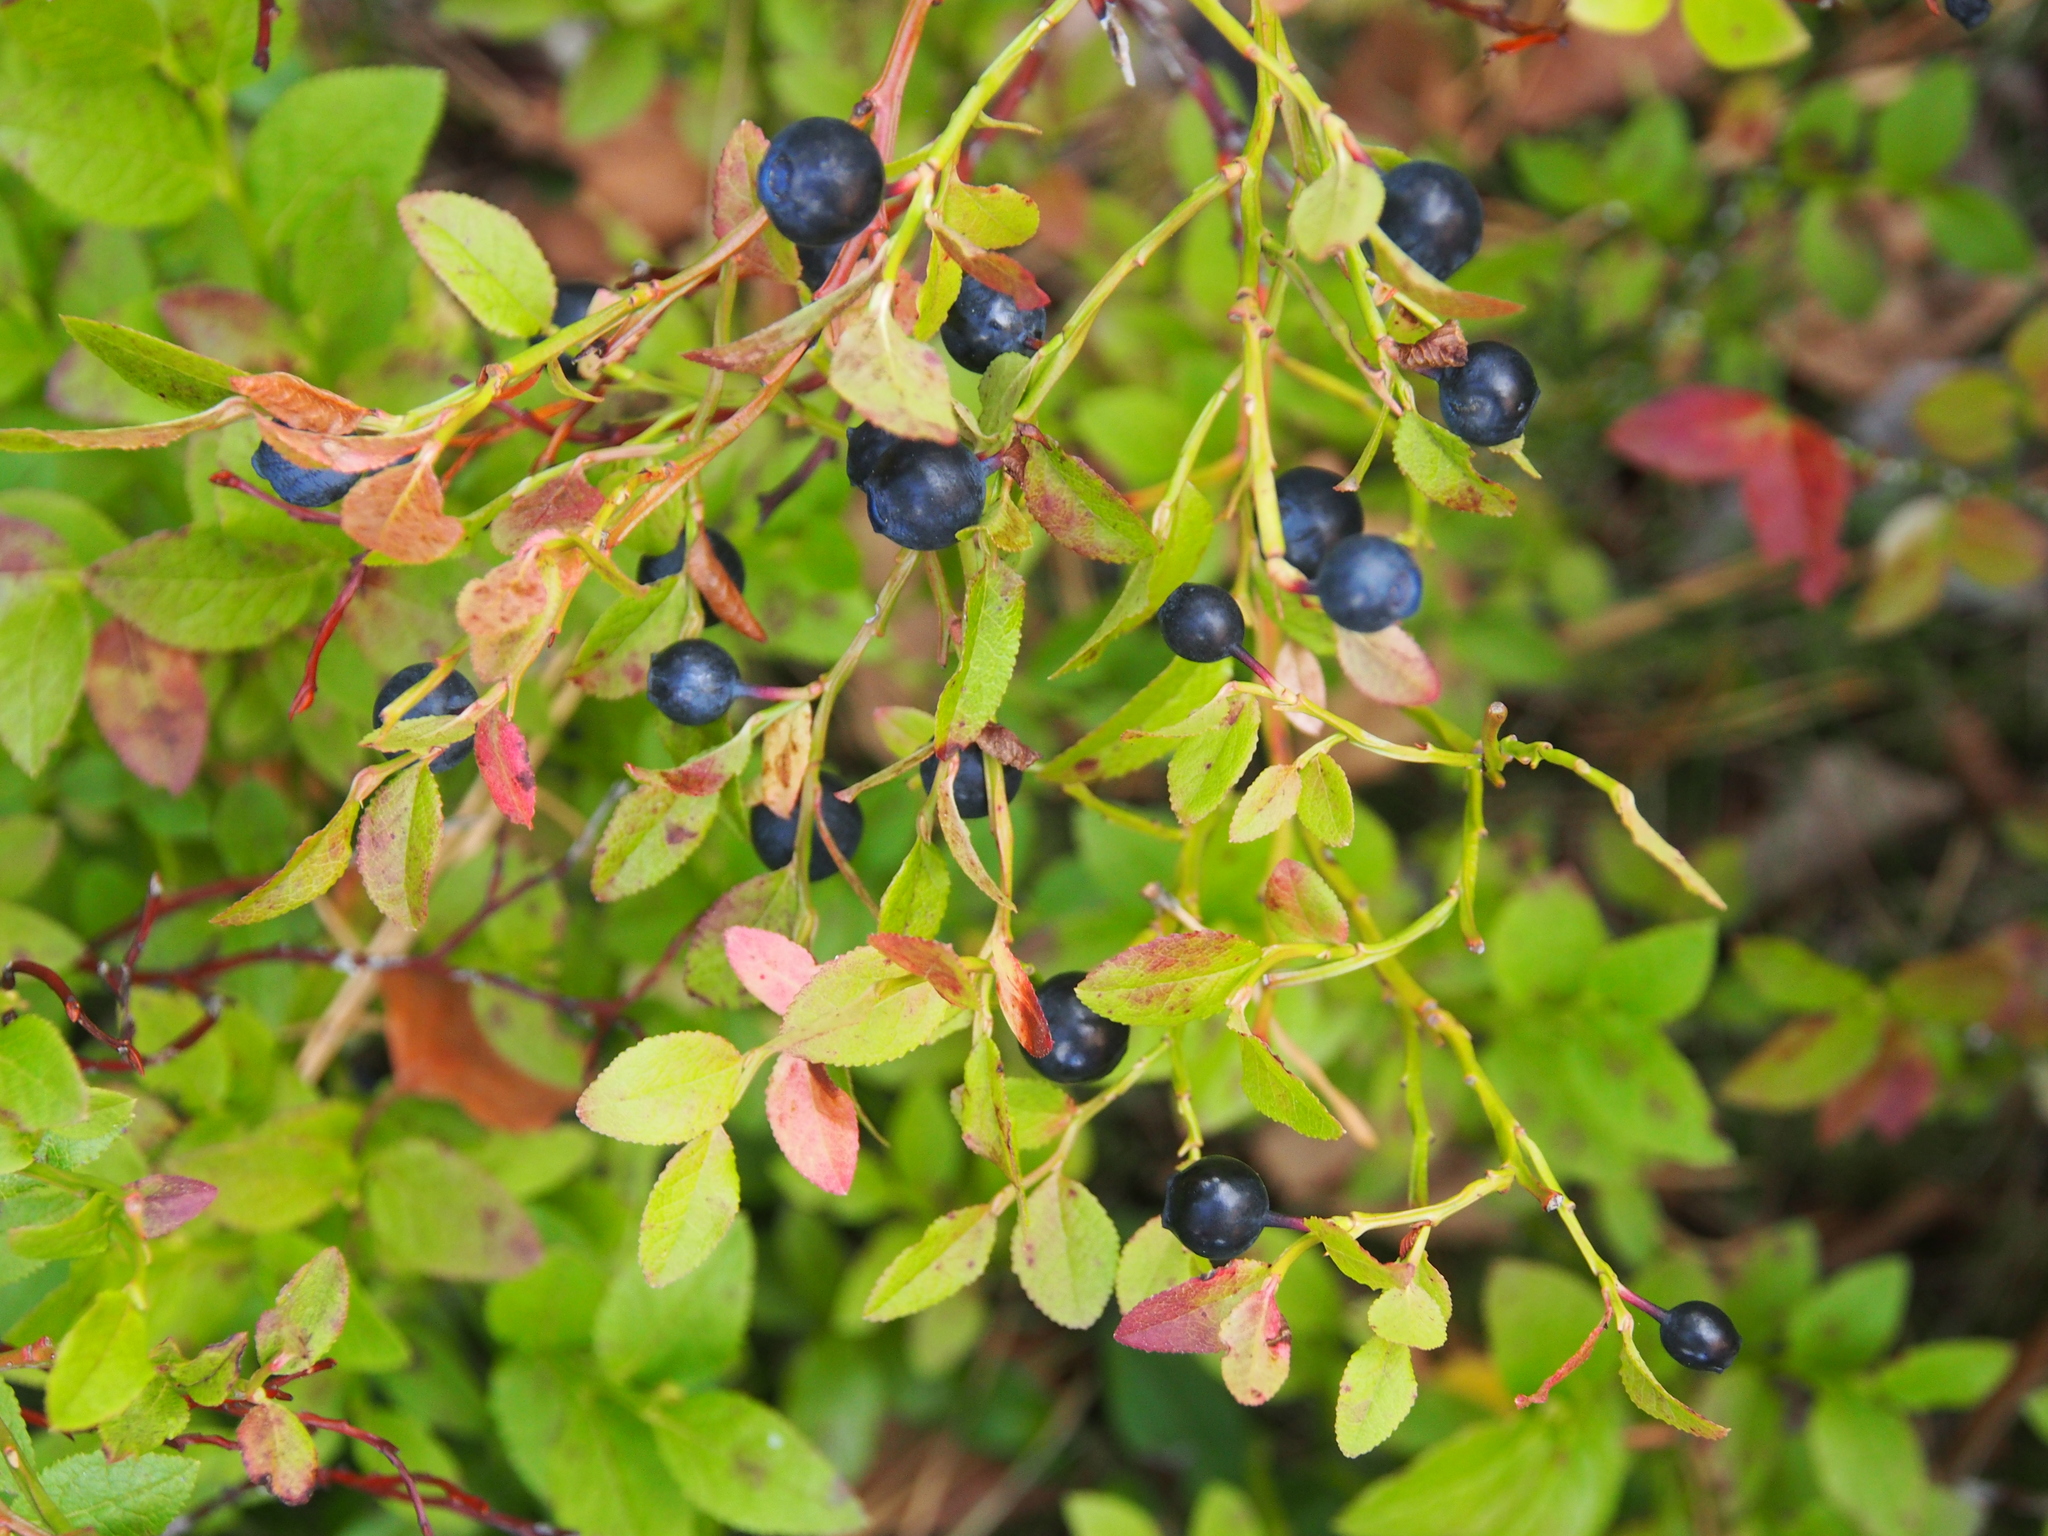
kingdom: Plantae
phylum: Tracheophyta
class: Magnoliopsida
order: Ericales
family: Ericaceae
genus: Vaccinium
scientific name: Vaccinium myrtillus
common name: Bilberry
